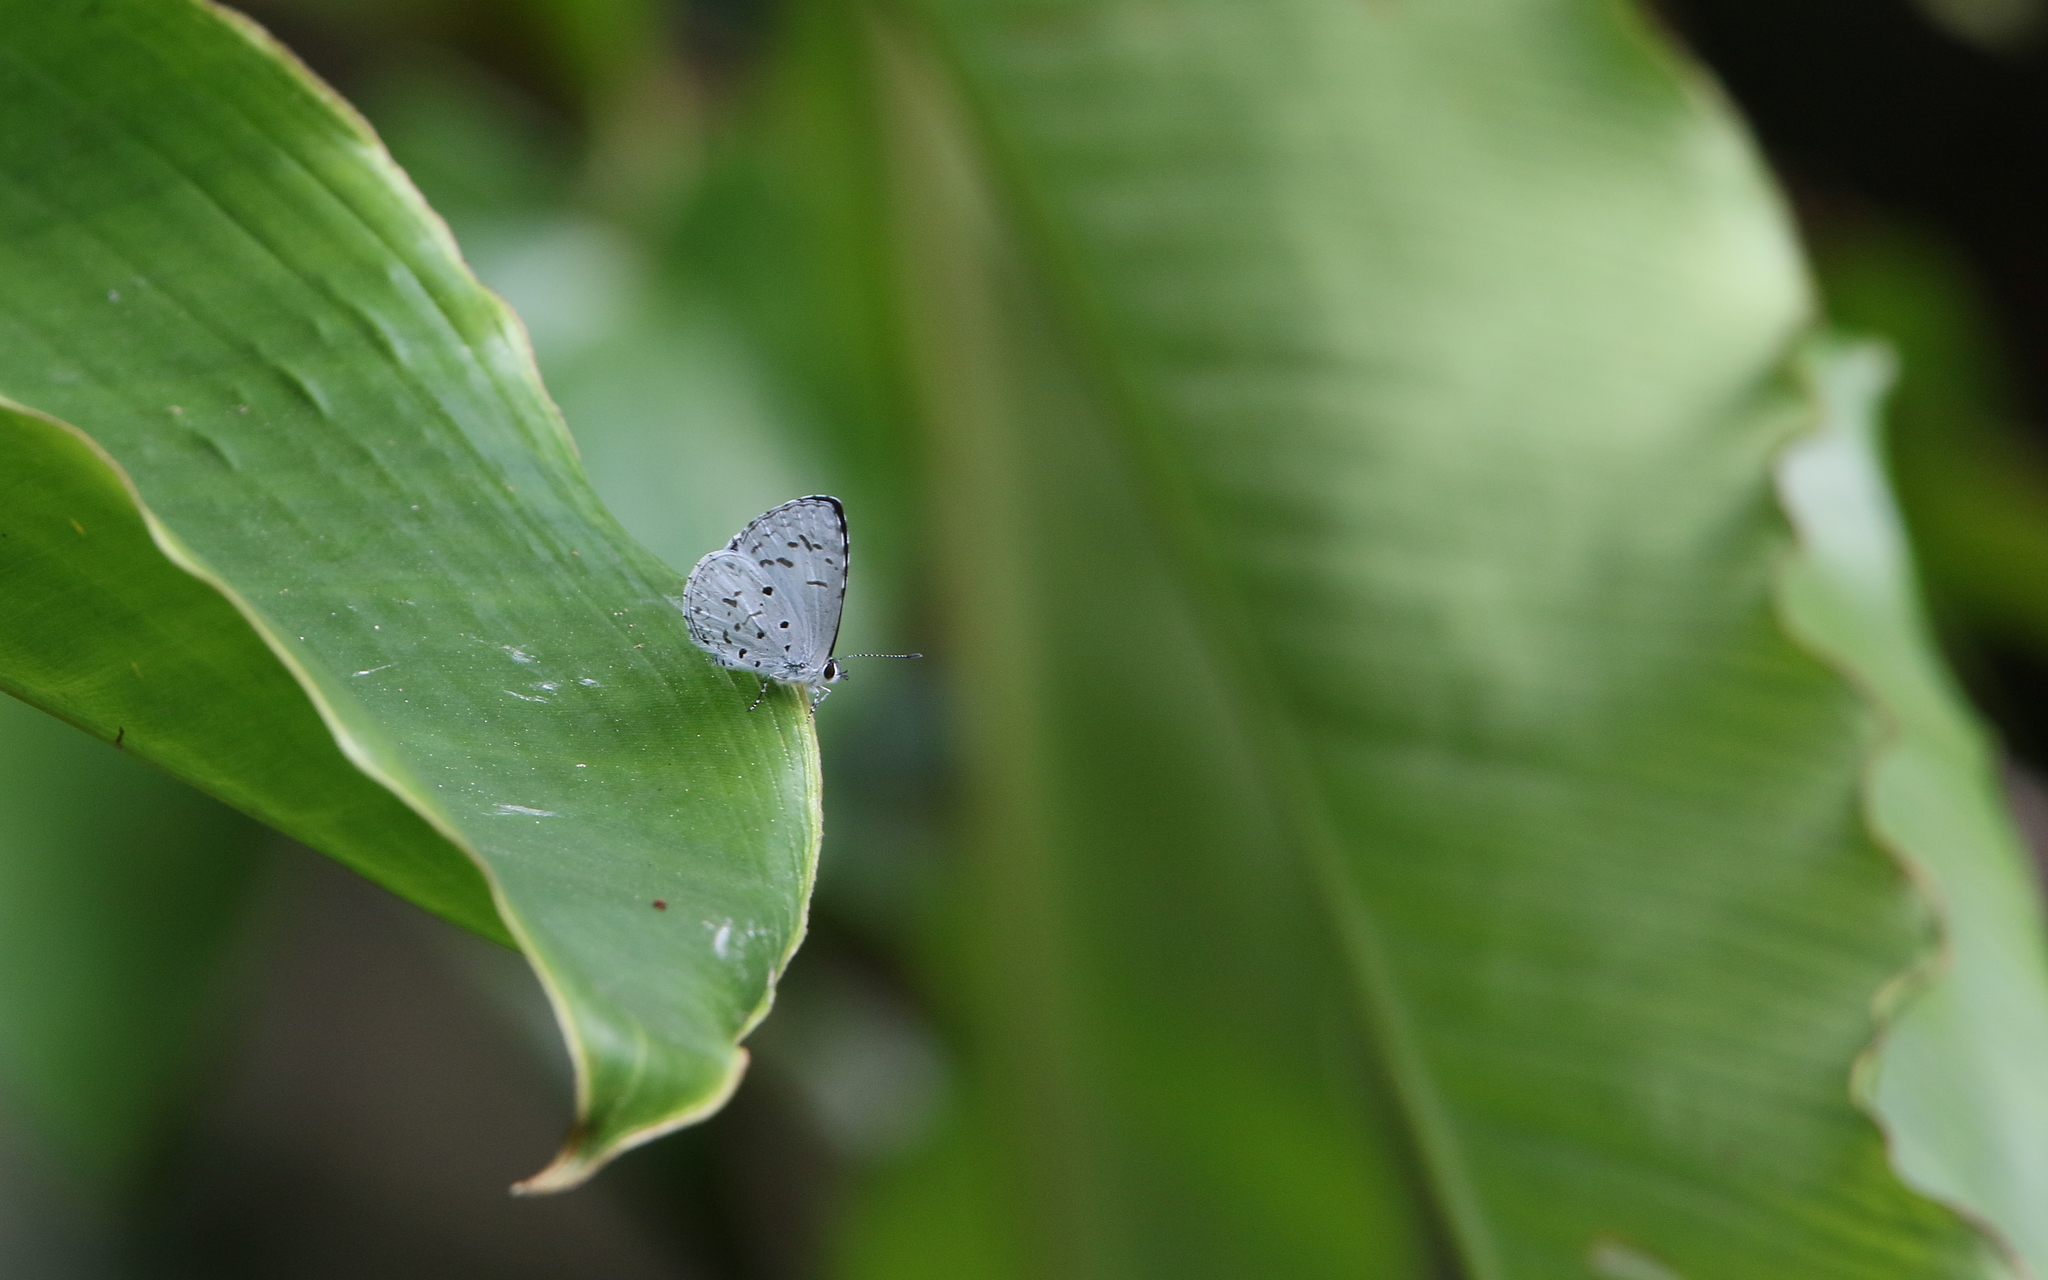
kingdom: Animalia
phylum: Arthropoda
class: Insecta
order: Lepidoptera
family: Lycaenidae
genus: Acytolepis
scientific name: Acytolepis puspa
